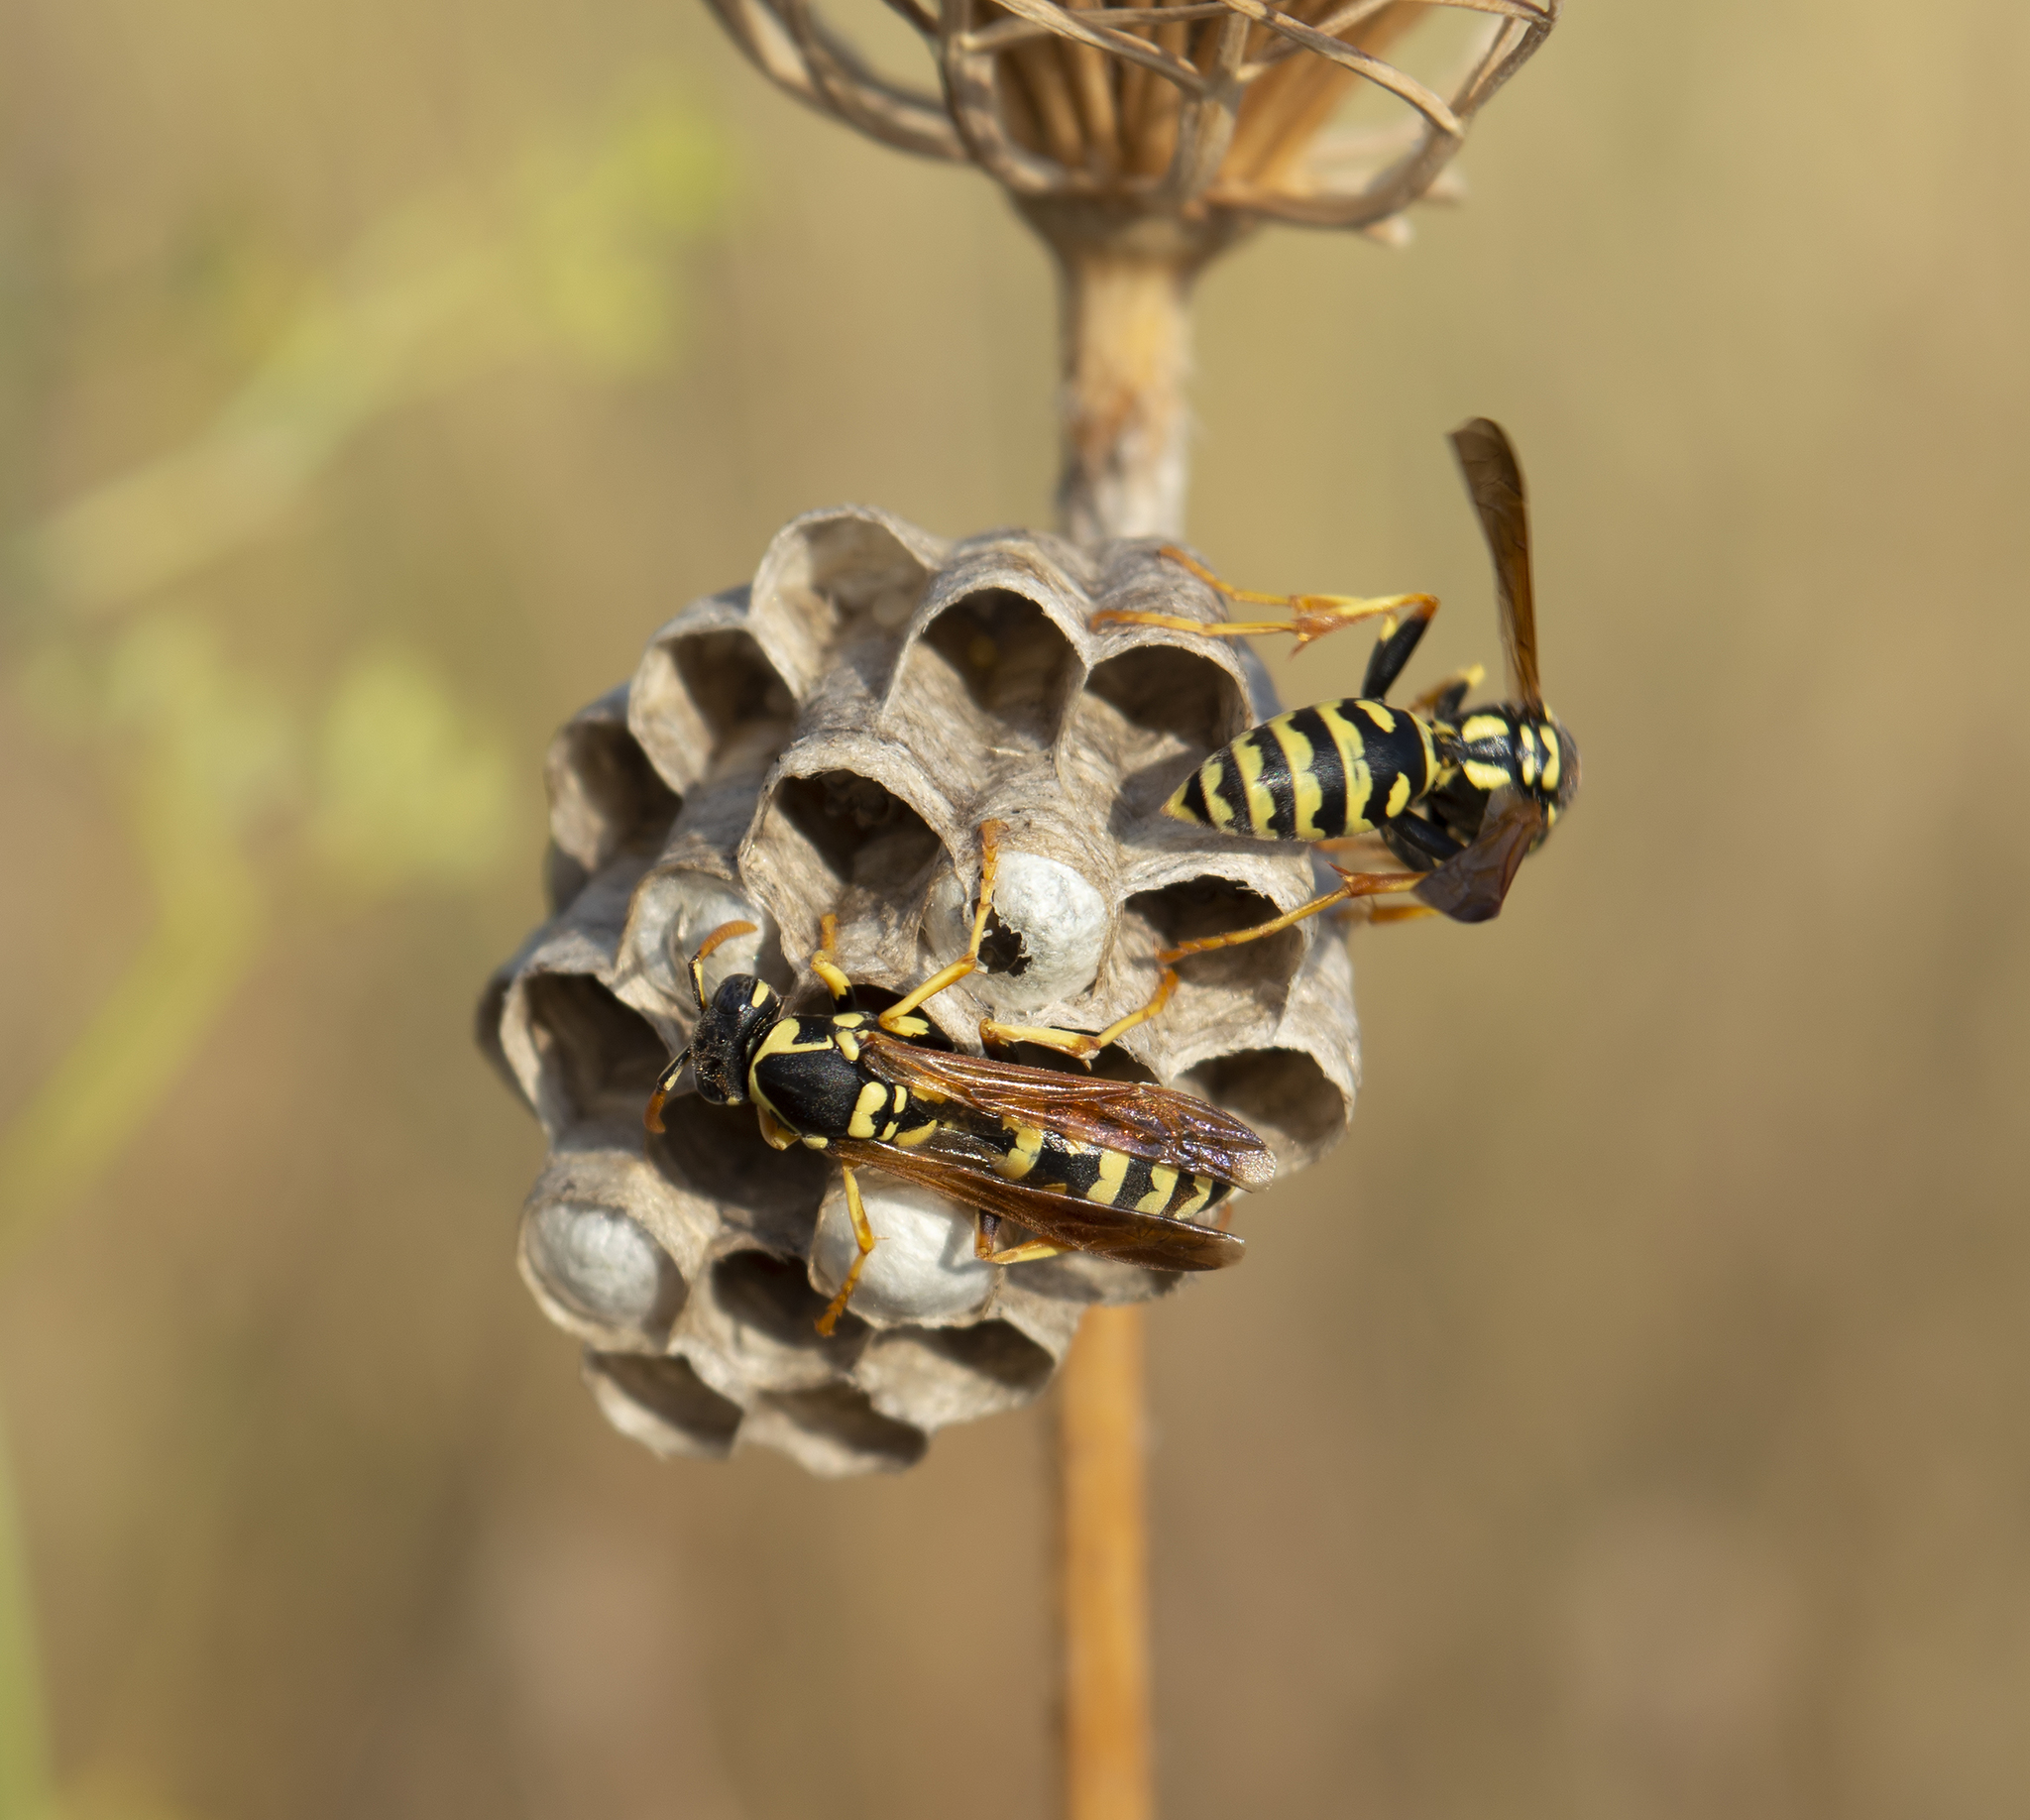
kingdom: Animalia
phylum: Arthropoda
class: Insecta
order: Hymenoptera
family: Eumenidae
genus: Polistes
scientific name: Polistes gallicus
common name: Paper wasp
